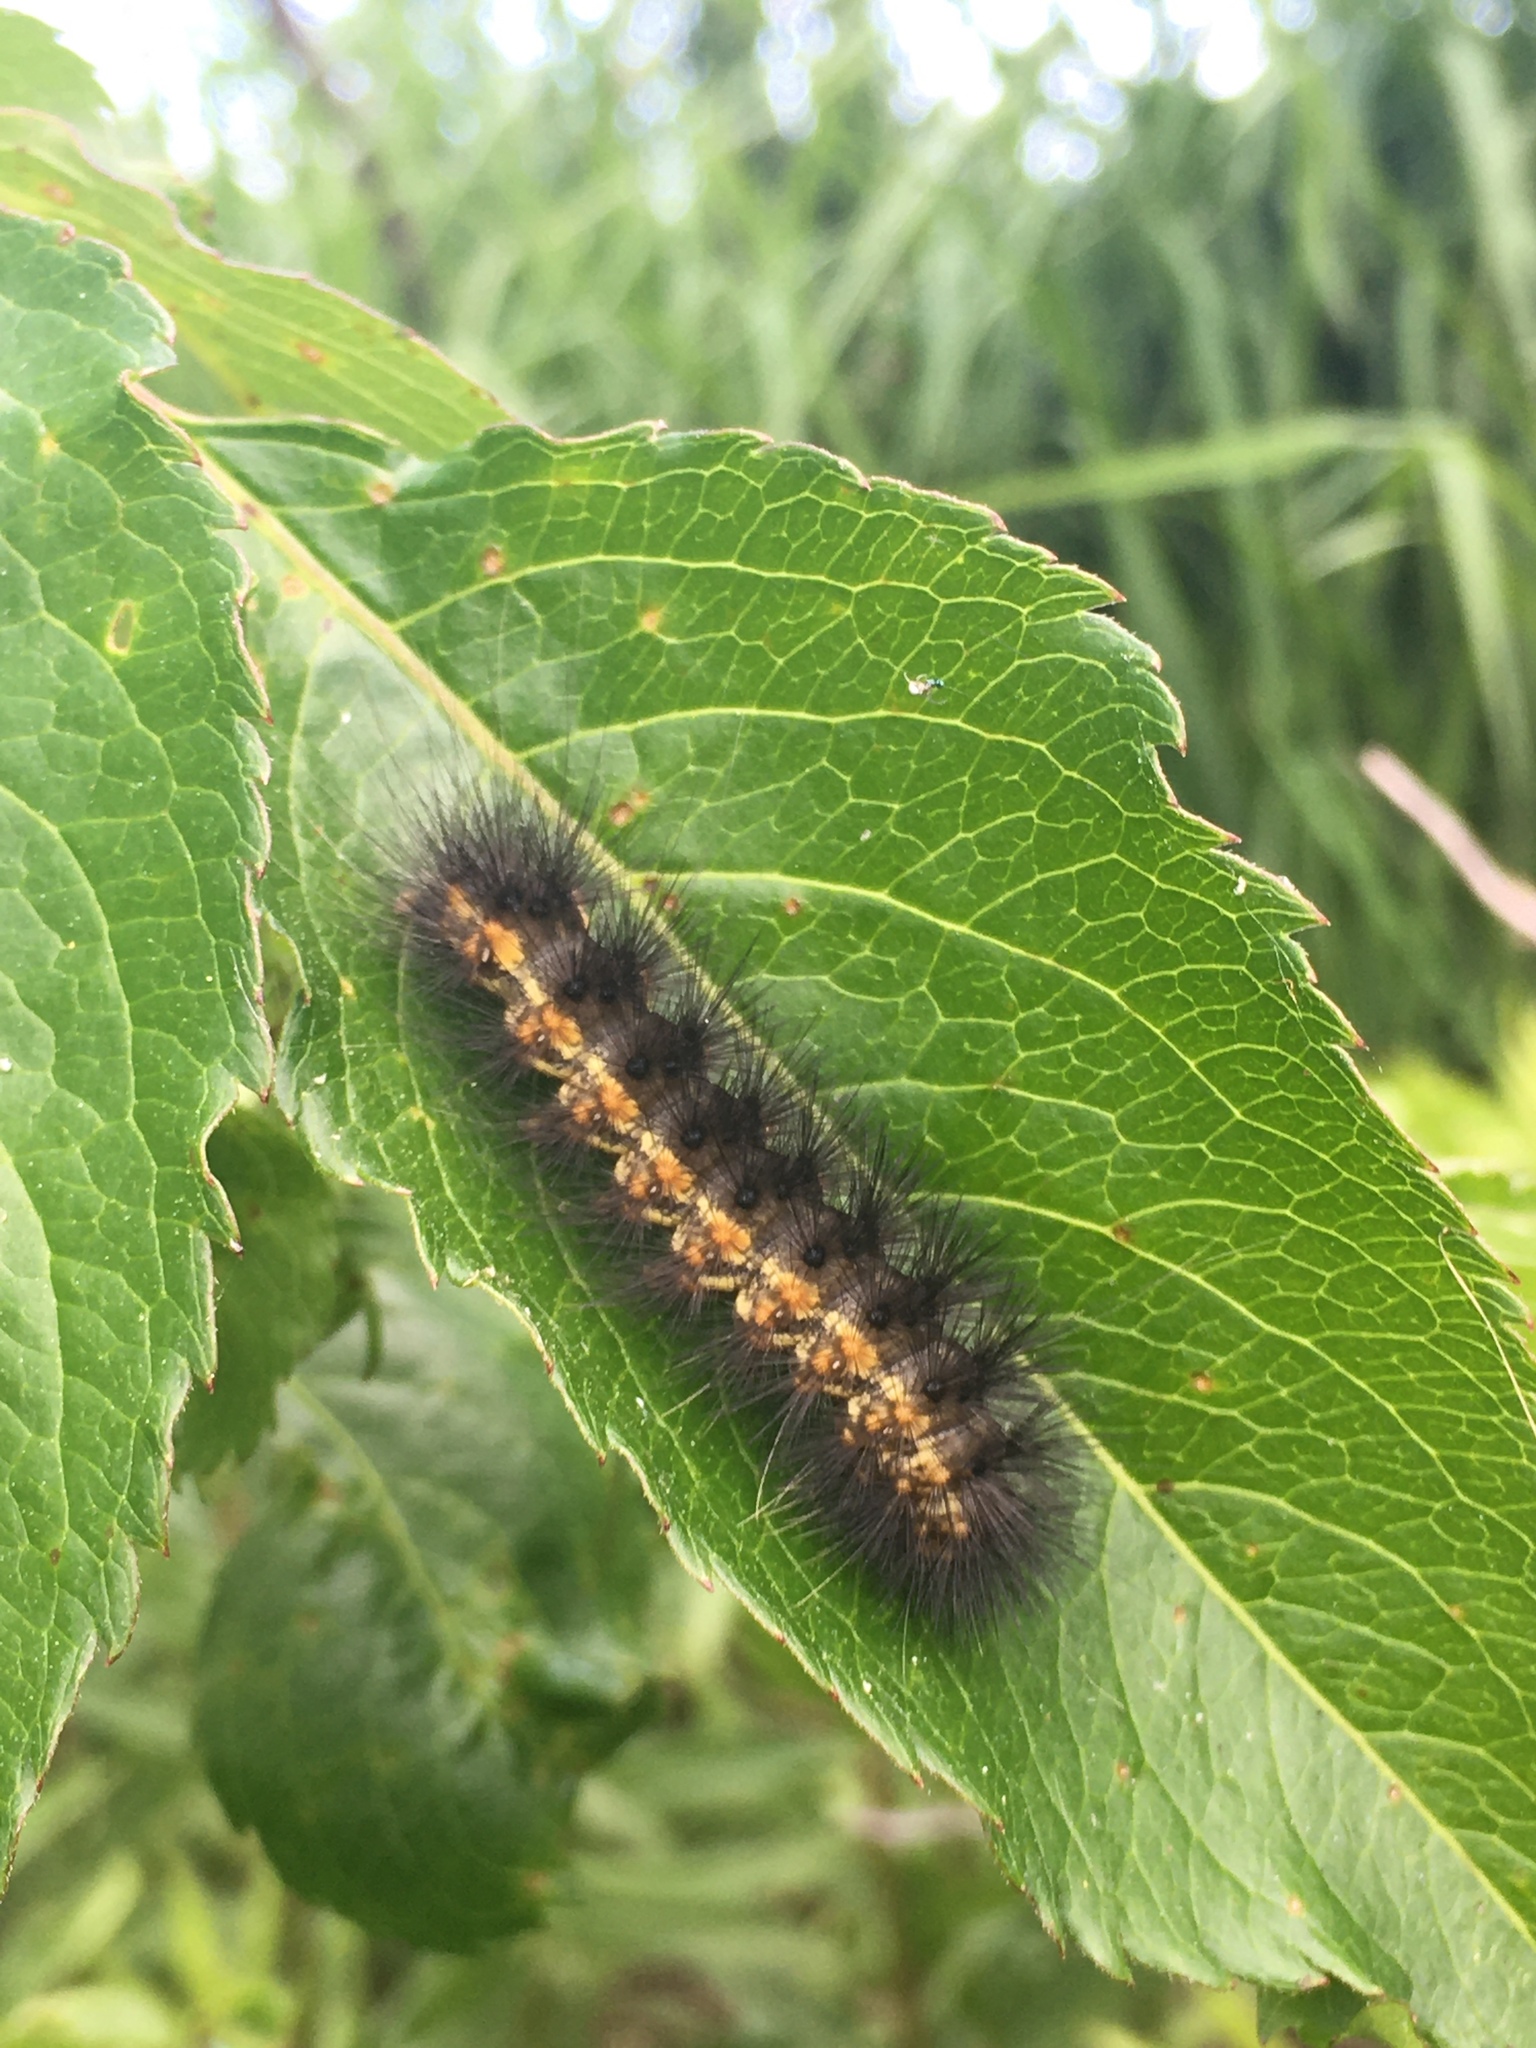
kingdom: Animalia
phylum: Arthropoda
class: Insecta
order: Lepidoptera
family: Erebidae
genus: Estigmene
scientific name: Estigmene acrea
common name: Salt marsh moth
